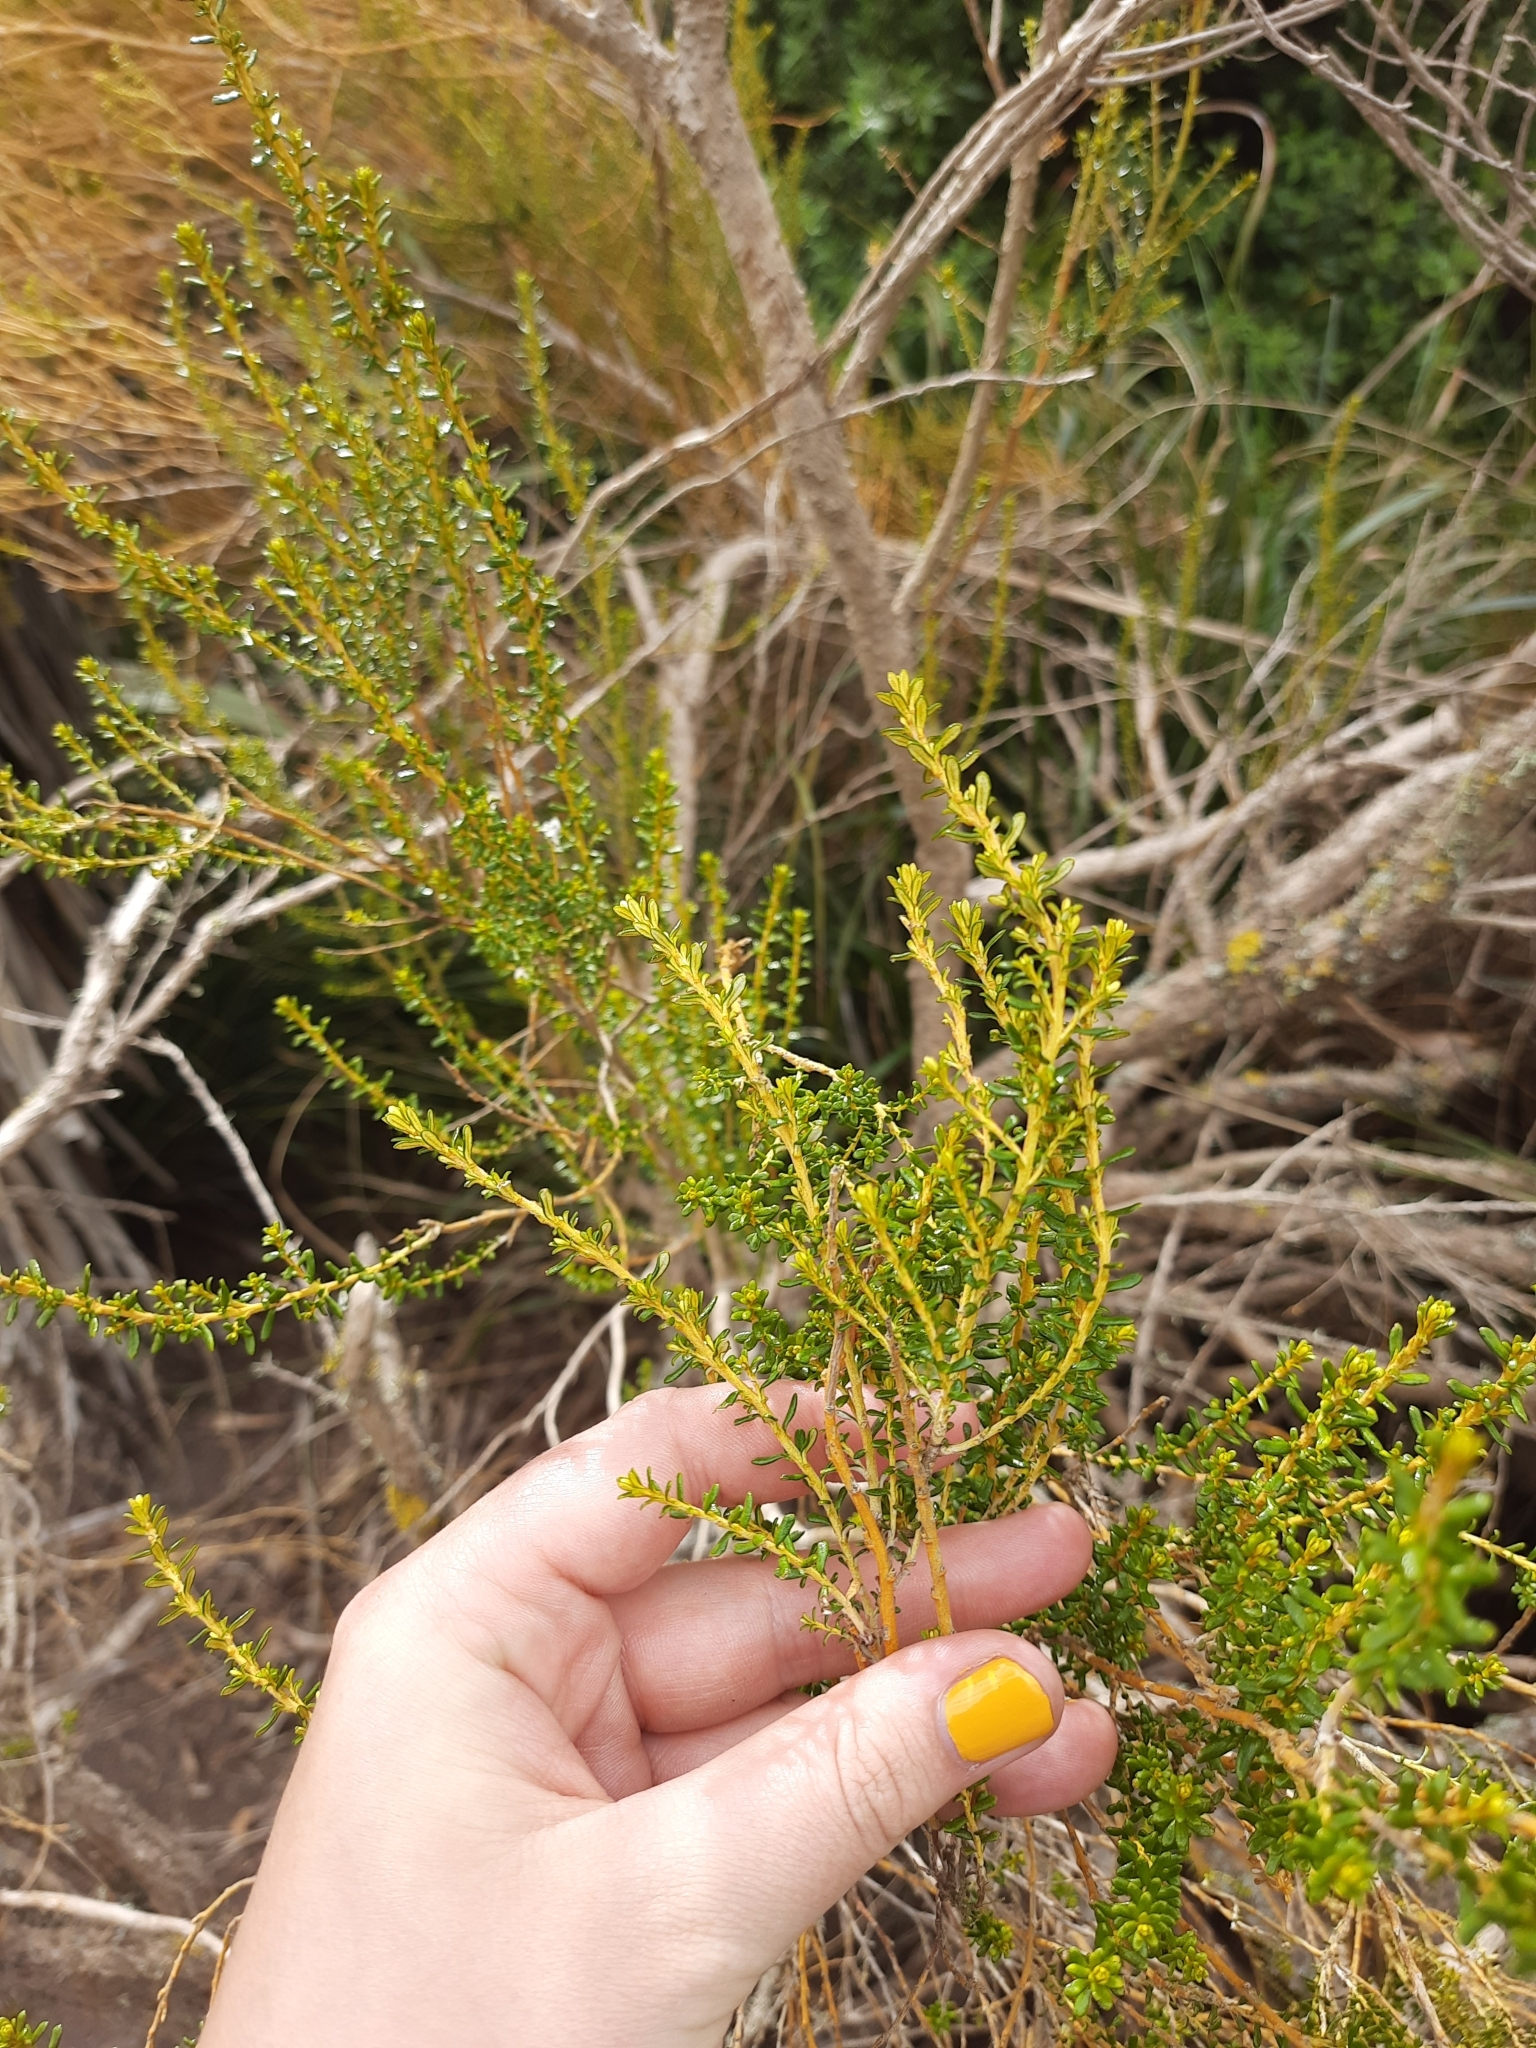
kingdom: Plantae
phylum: Tracheophyta
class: Magnoliopsida
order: Asterales
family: Asteraceae
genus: Ozothamnus
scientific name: Ozothamnus leptophyllus
